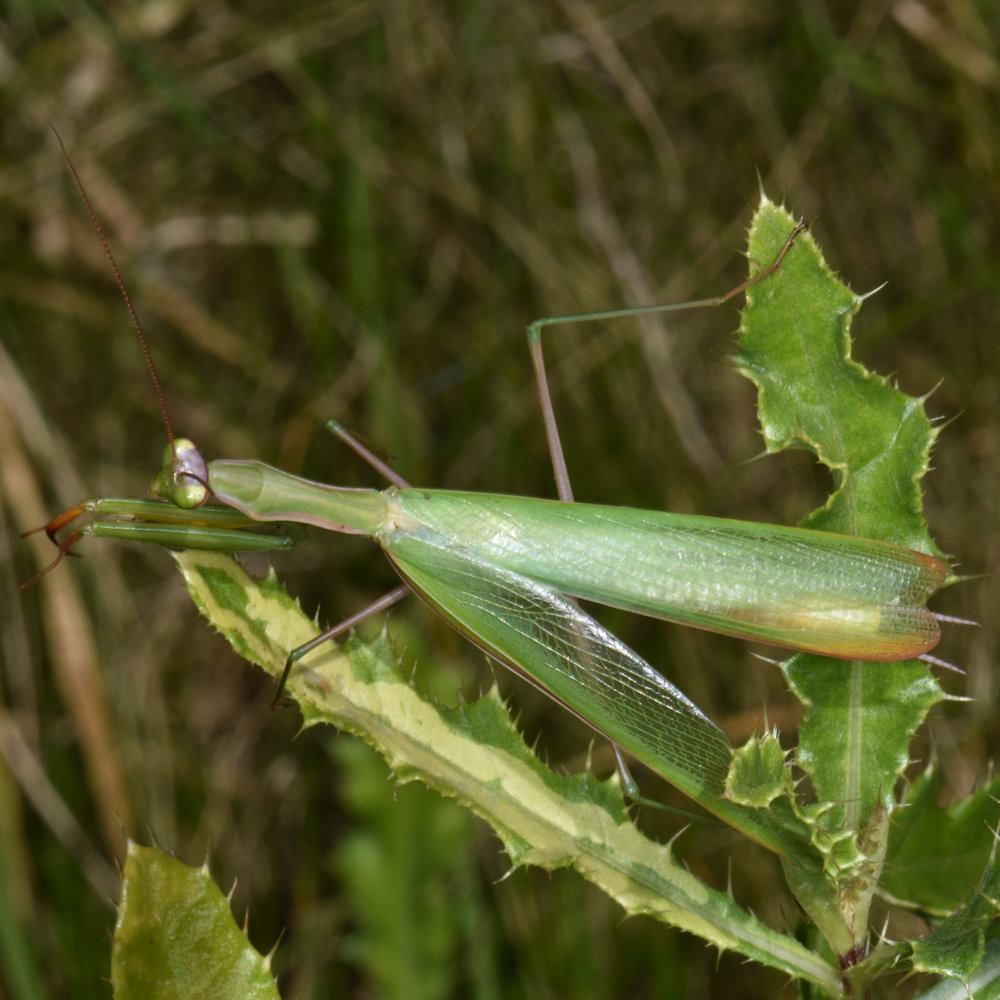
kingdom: Animalia
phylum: Arthropoda
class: Insecta
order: Mantodea
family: Mantidae
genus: Mantis
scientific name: Mantis religiosa
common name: Praying mantis
